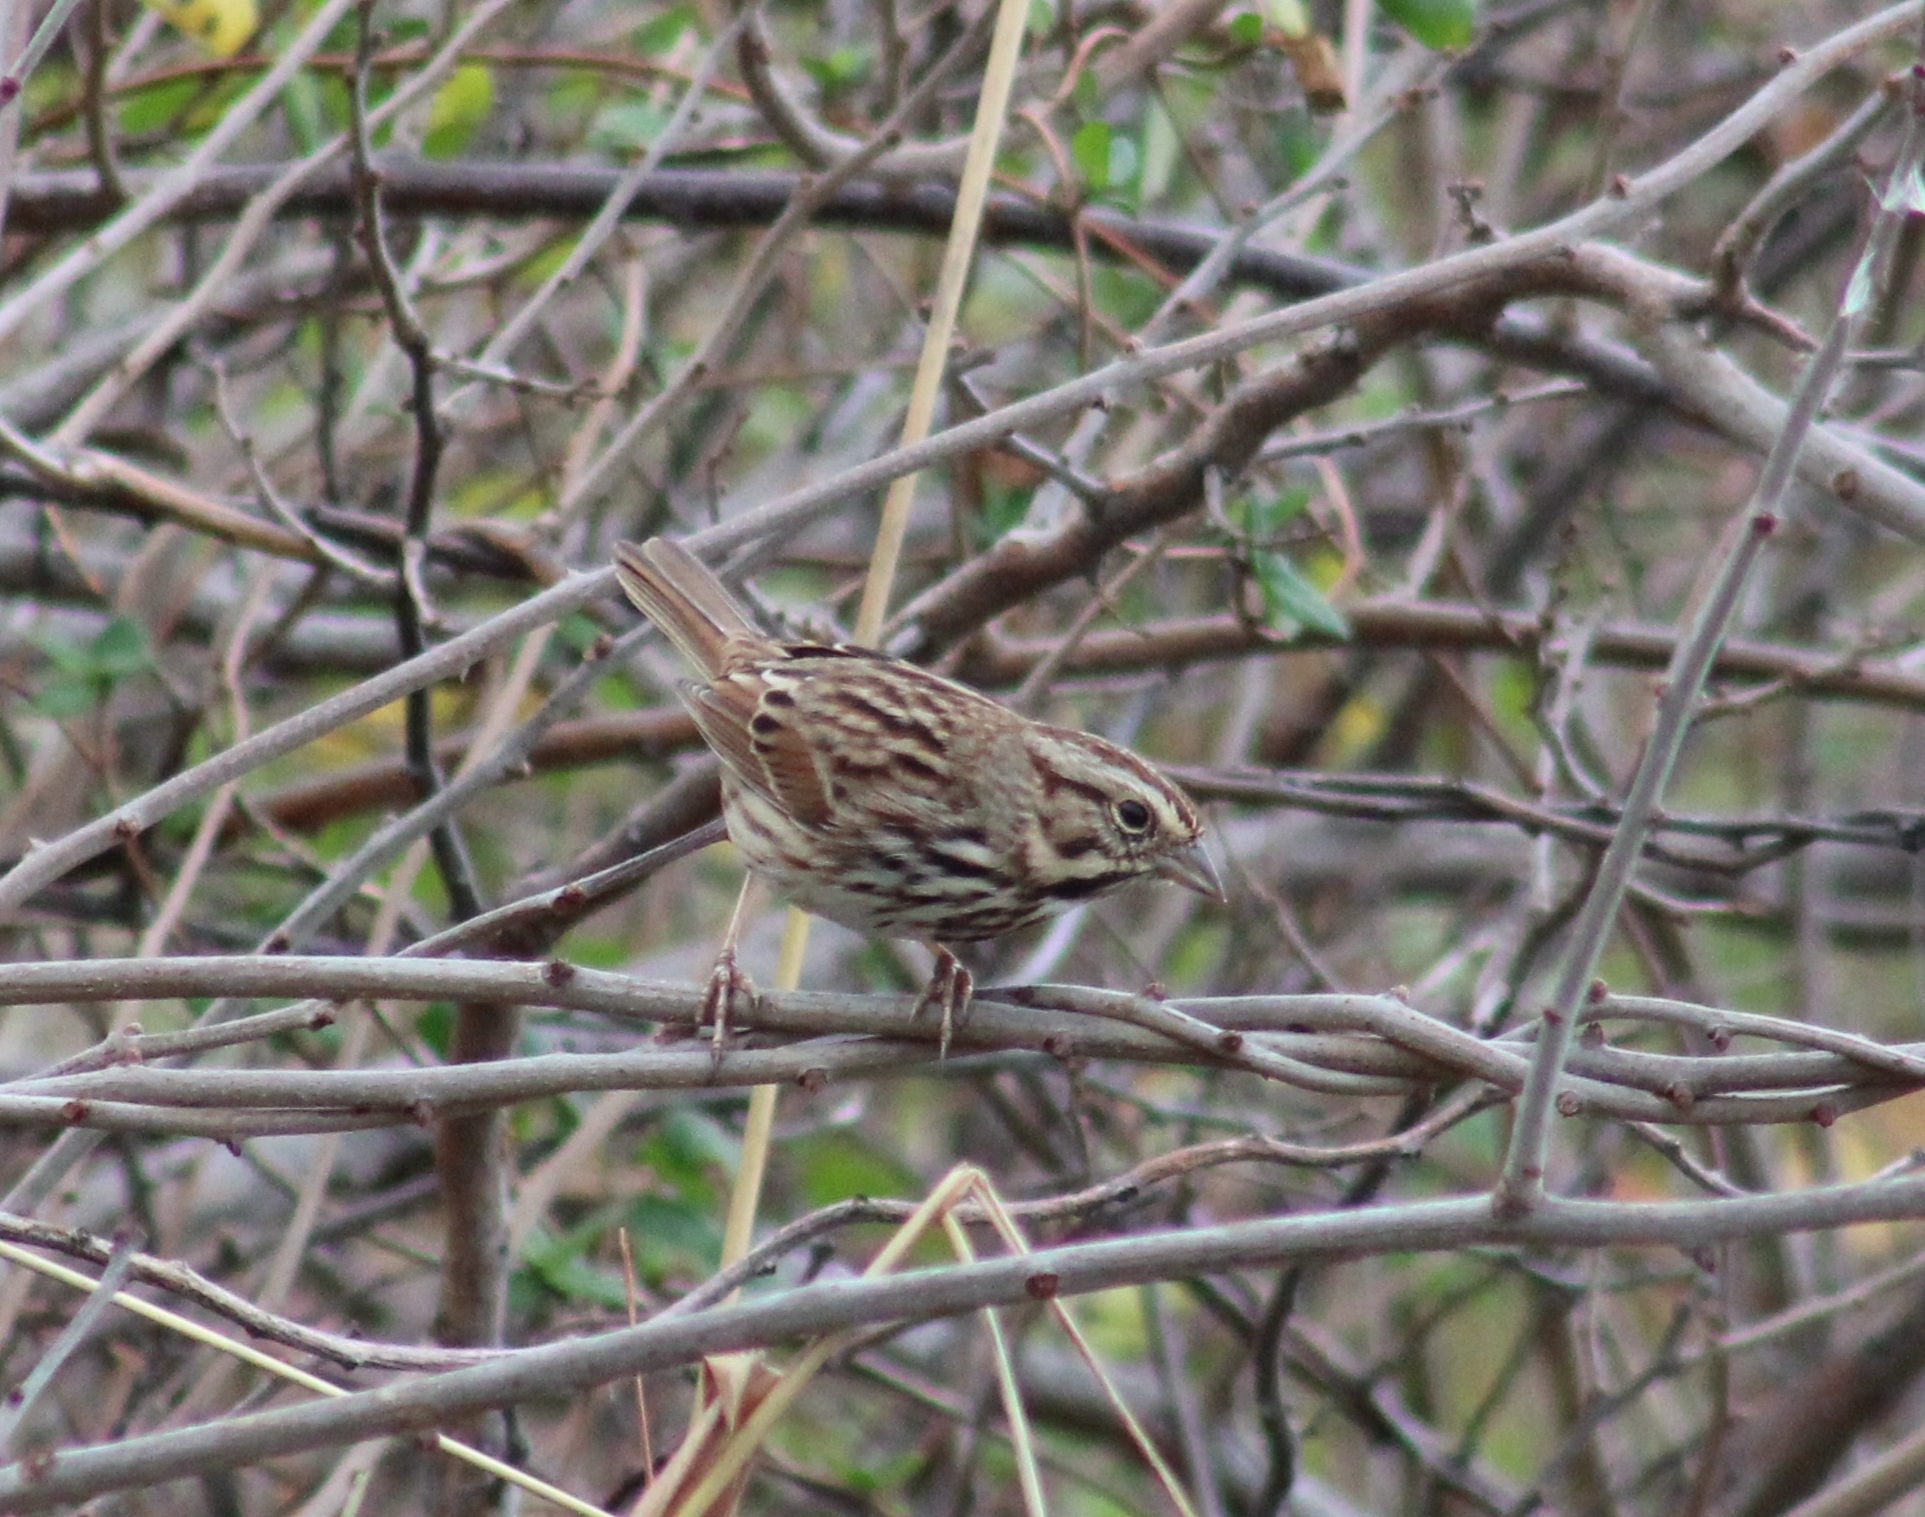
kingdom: Animalia
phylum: Chordata
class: Aves
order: Passeriformes
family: Passerellidae
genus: Melospiza
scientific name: Melospiza melodia
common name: Song sparrow
